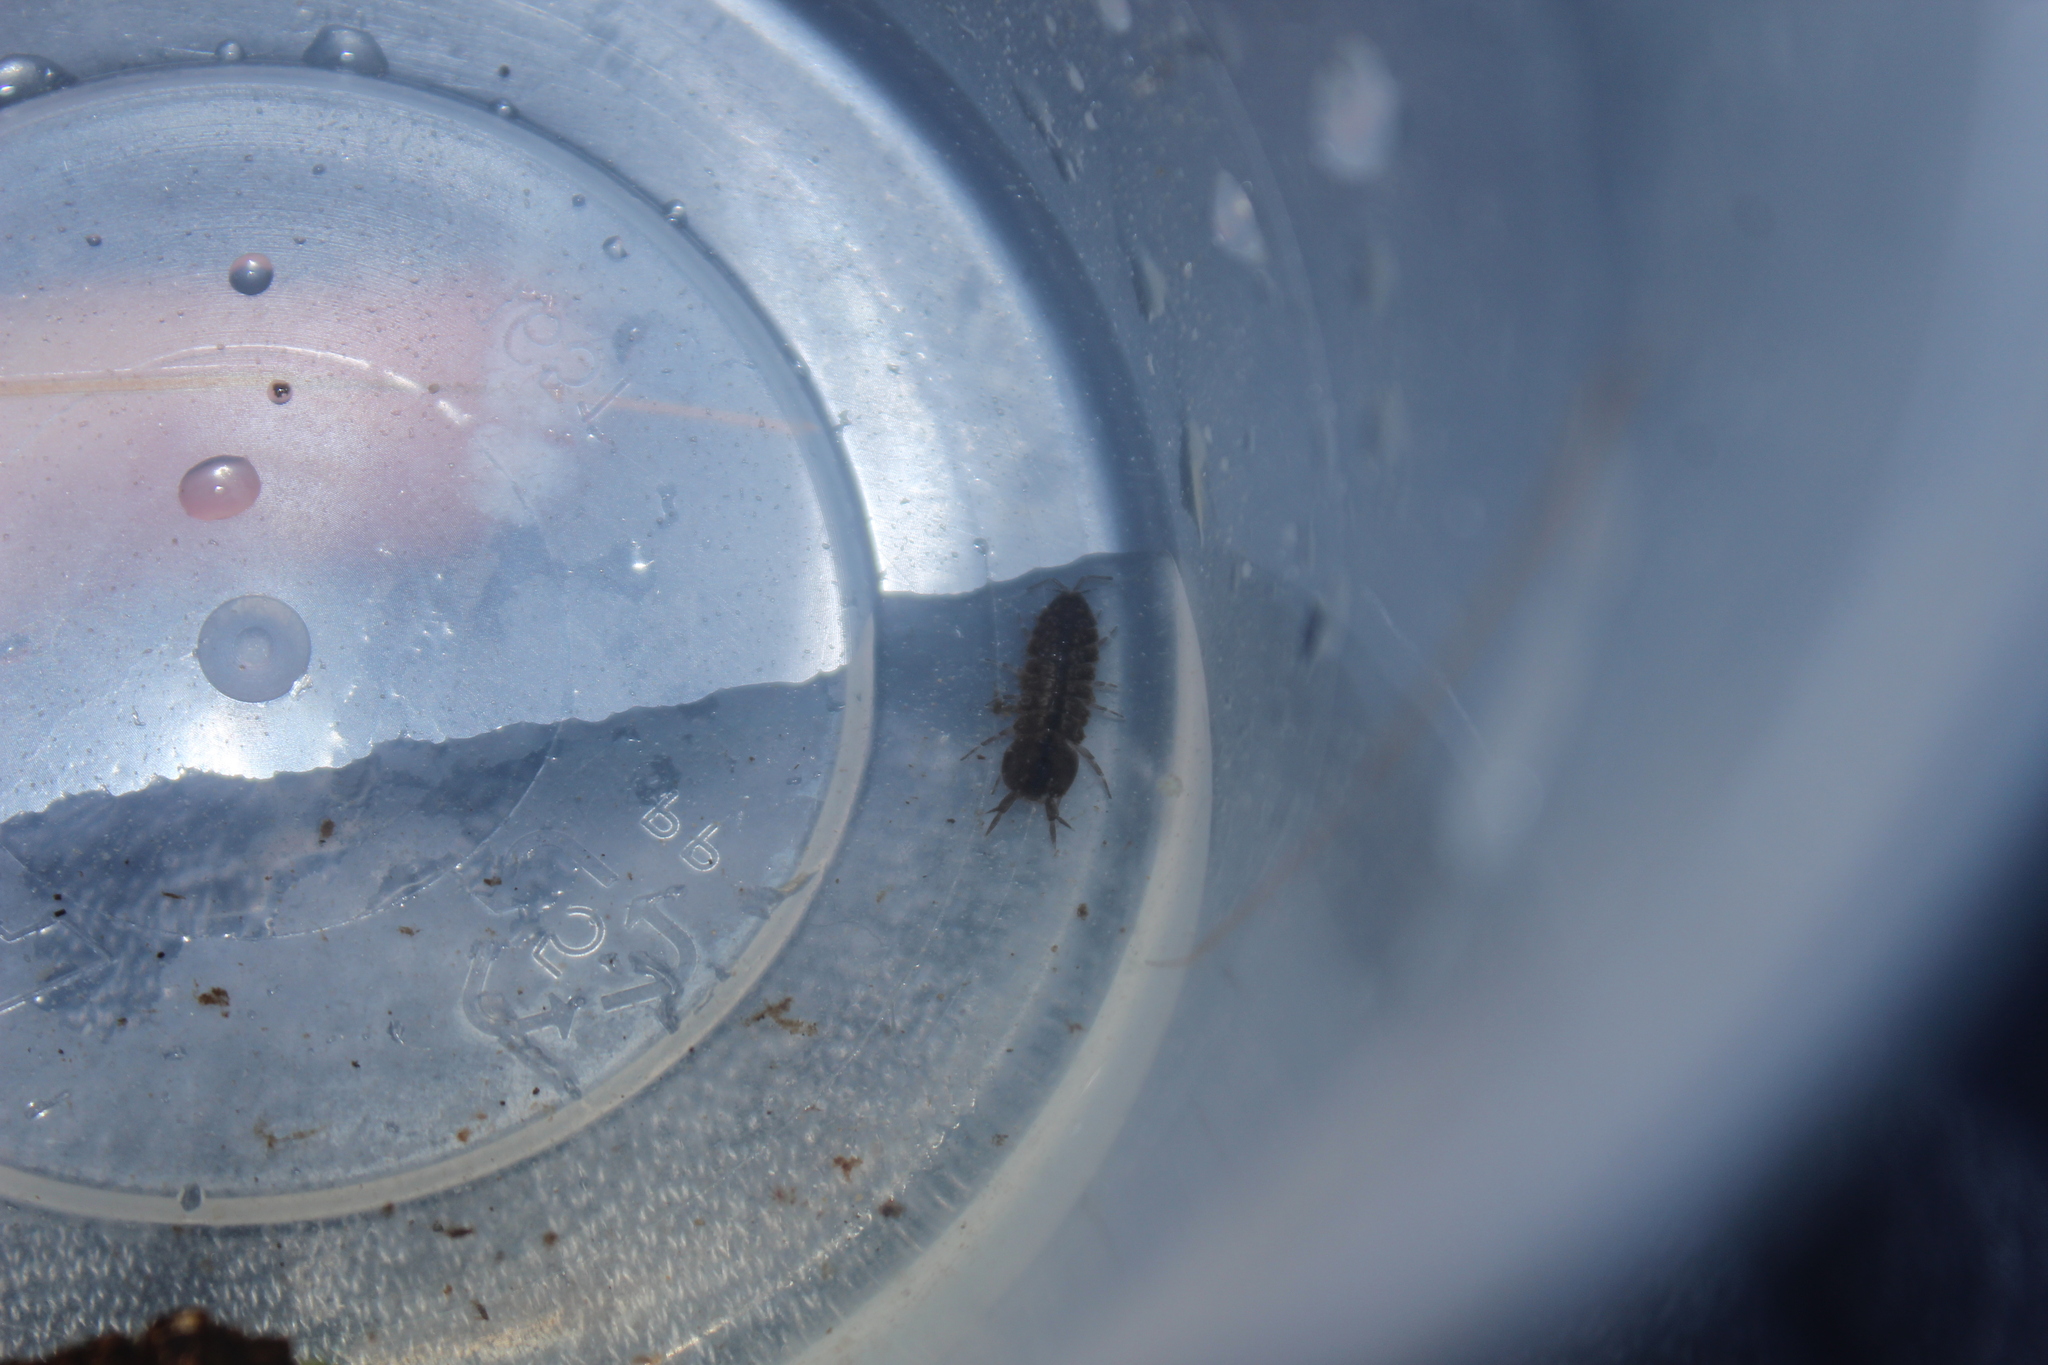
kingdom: Animalia
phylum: Arthropoda
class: Malacostraca
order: Isopoda
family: Asellidae
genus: Caecidotea
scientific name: Caecidotea
